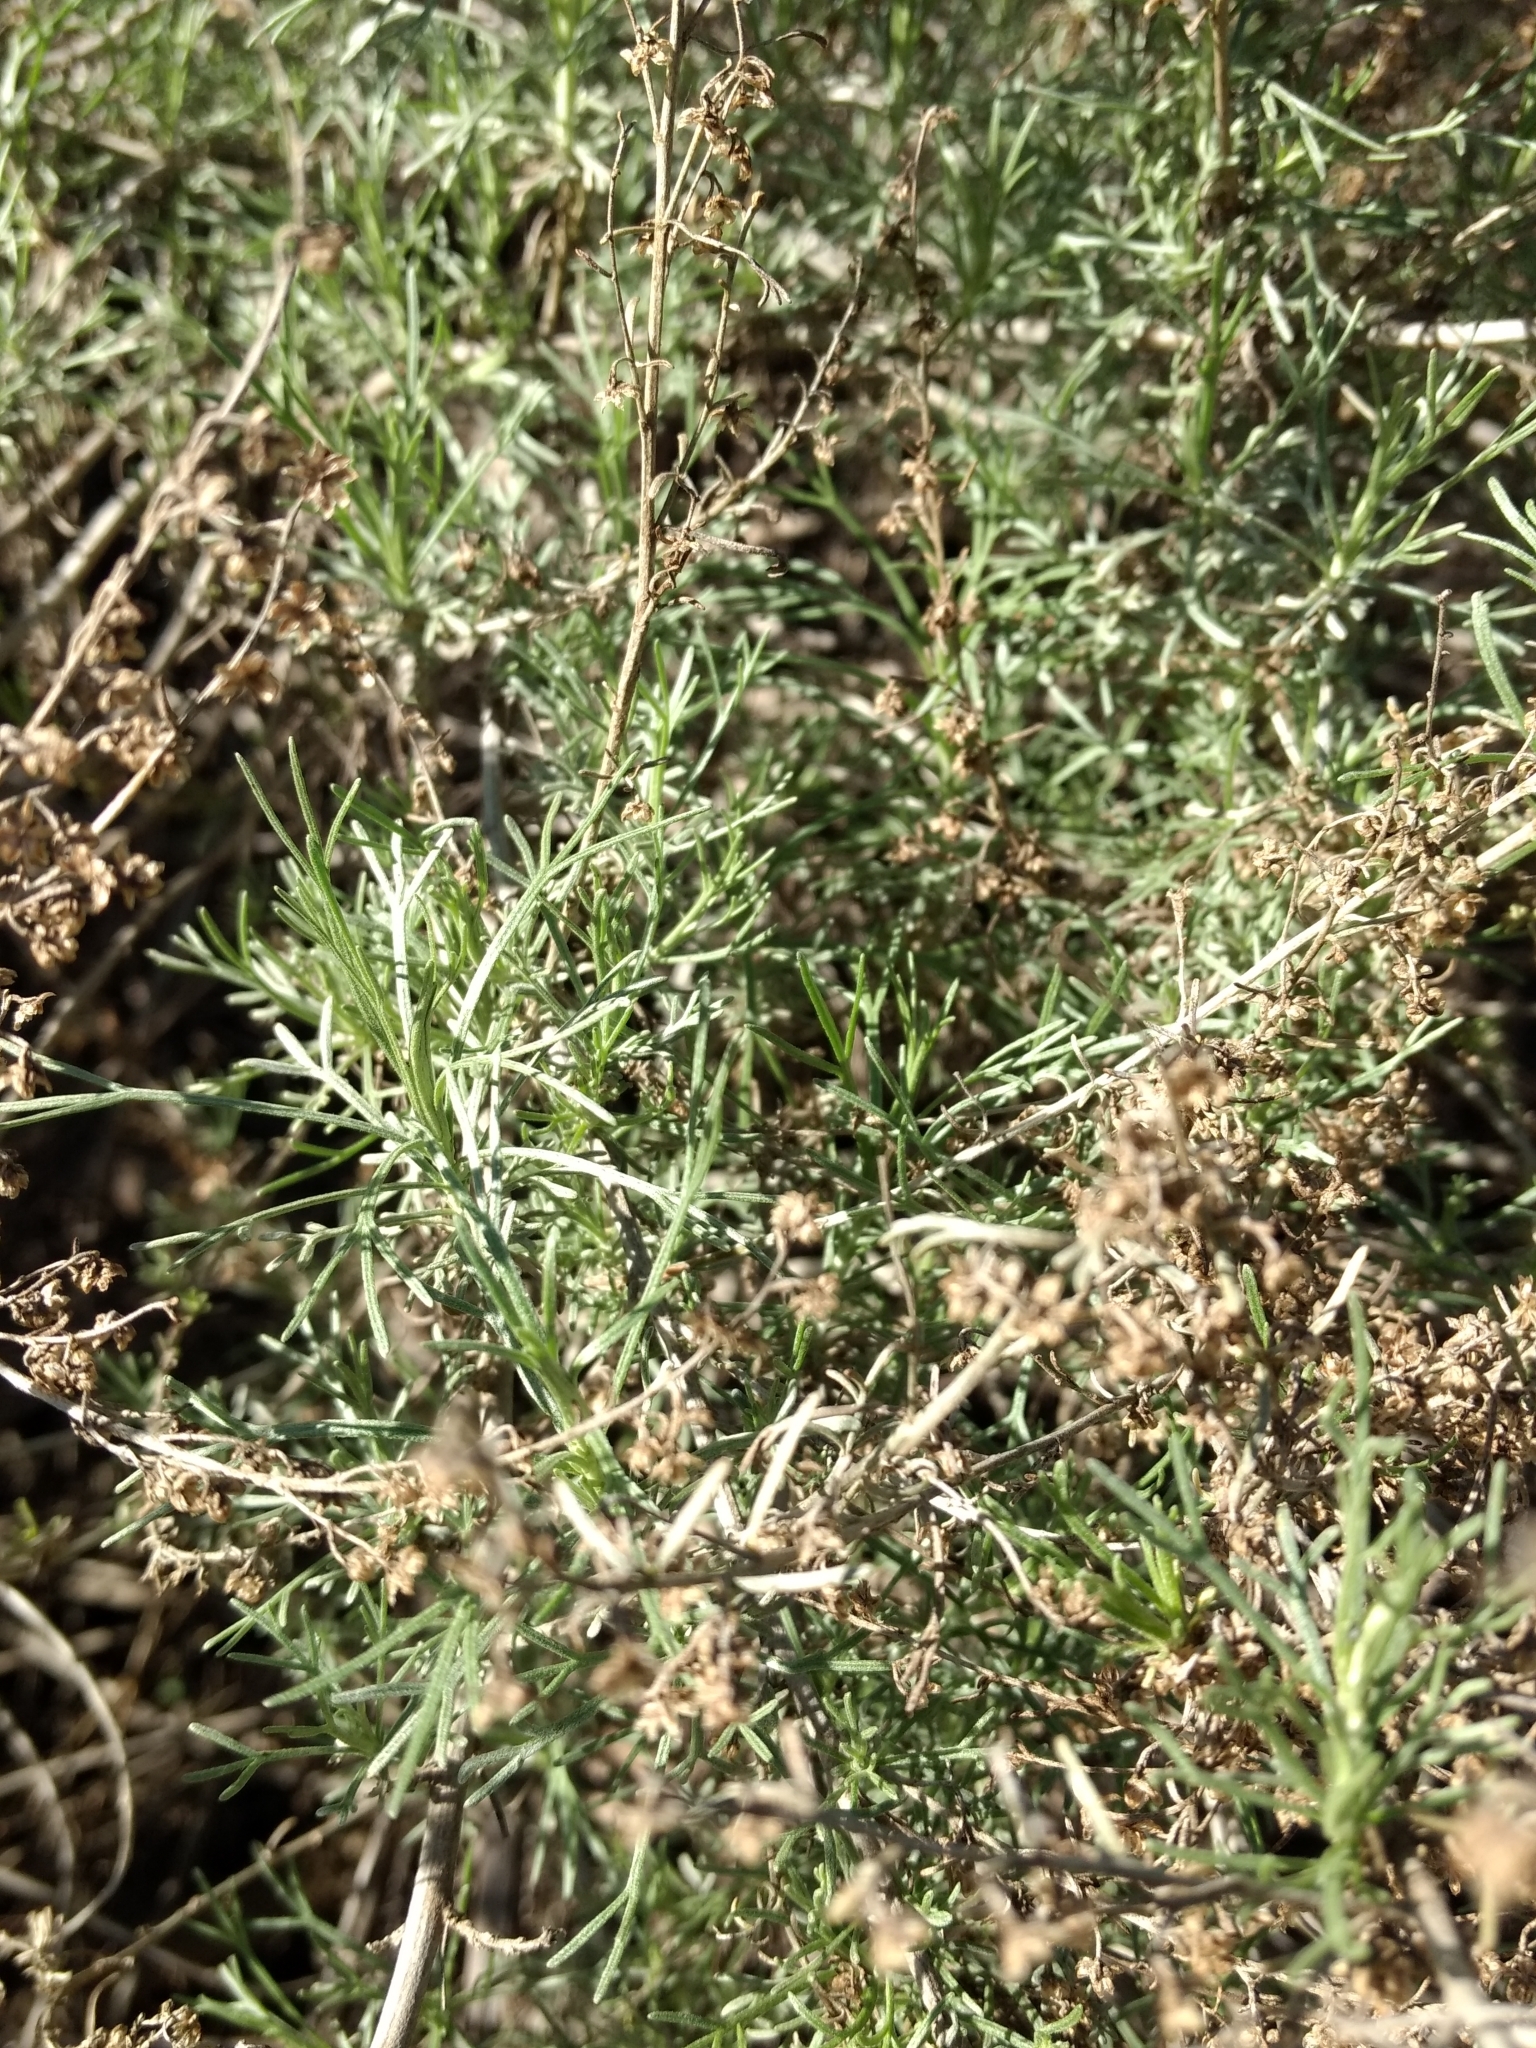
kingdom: Plantae
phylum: Tracheophyta
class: Magnoliopsida
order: Asterales
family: Asteraceae
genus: Artemisia
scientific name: Artemisia californica
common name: California sagebrush
